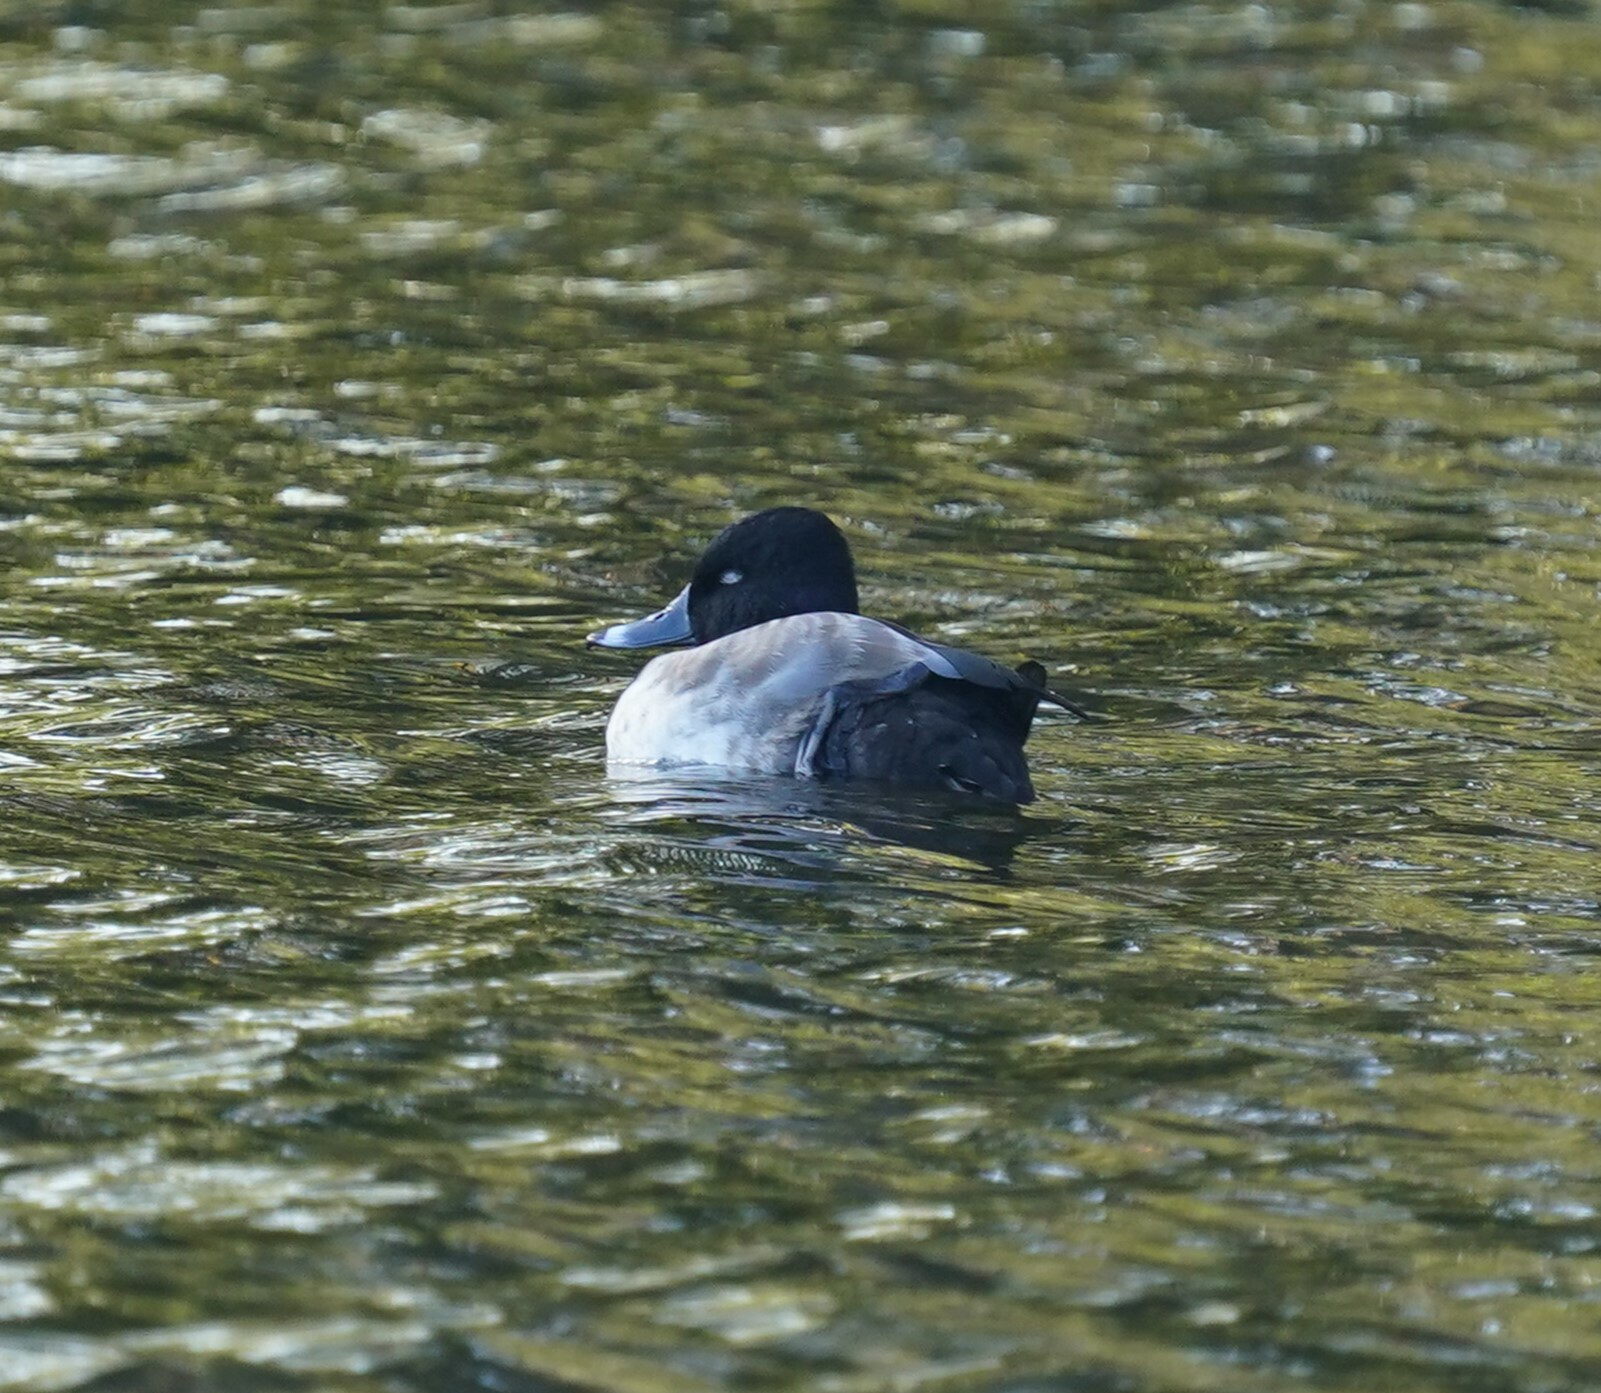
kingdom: Animalia
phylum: Chordata
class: Aves
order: Anseriformes
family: Anatidae
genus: Aythya
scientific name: Aythya affinis
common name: Lesser scaup
